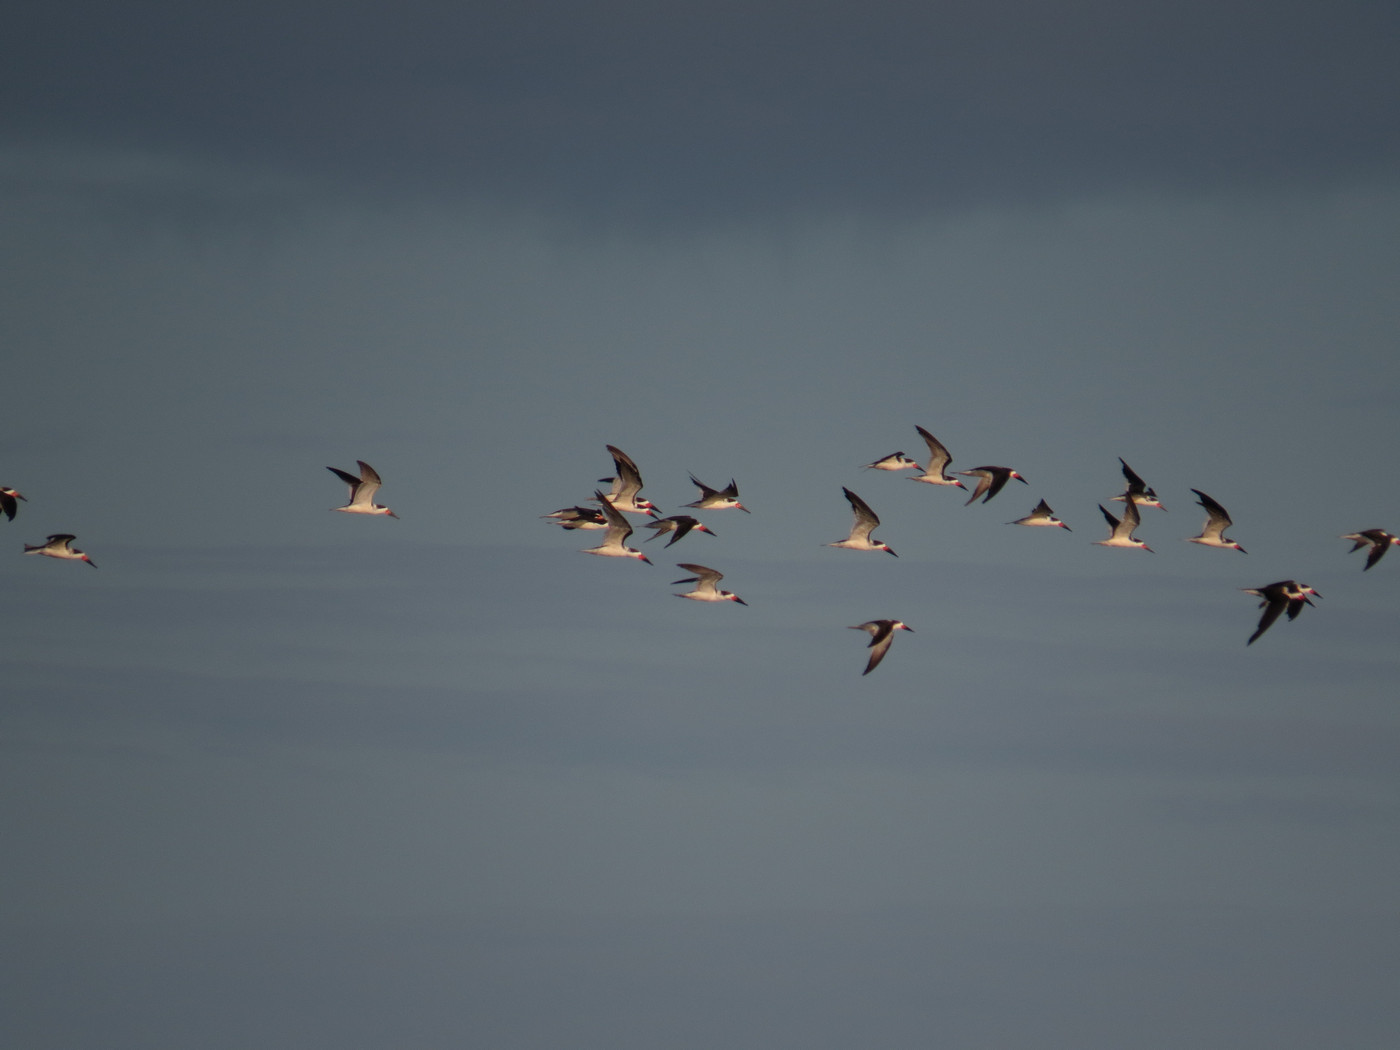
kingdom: Animalia
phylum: Chordata
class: Aves
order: Charadriiformes
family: Laridae
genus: Rynchops
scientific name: Rynchops niger
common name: Black skimmer
